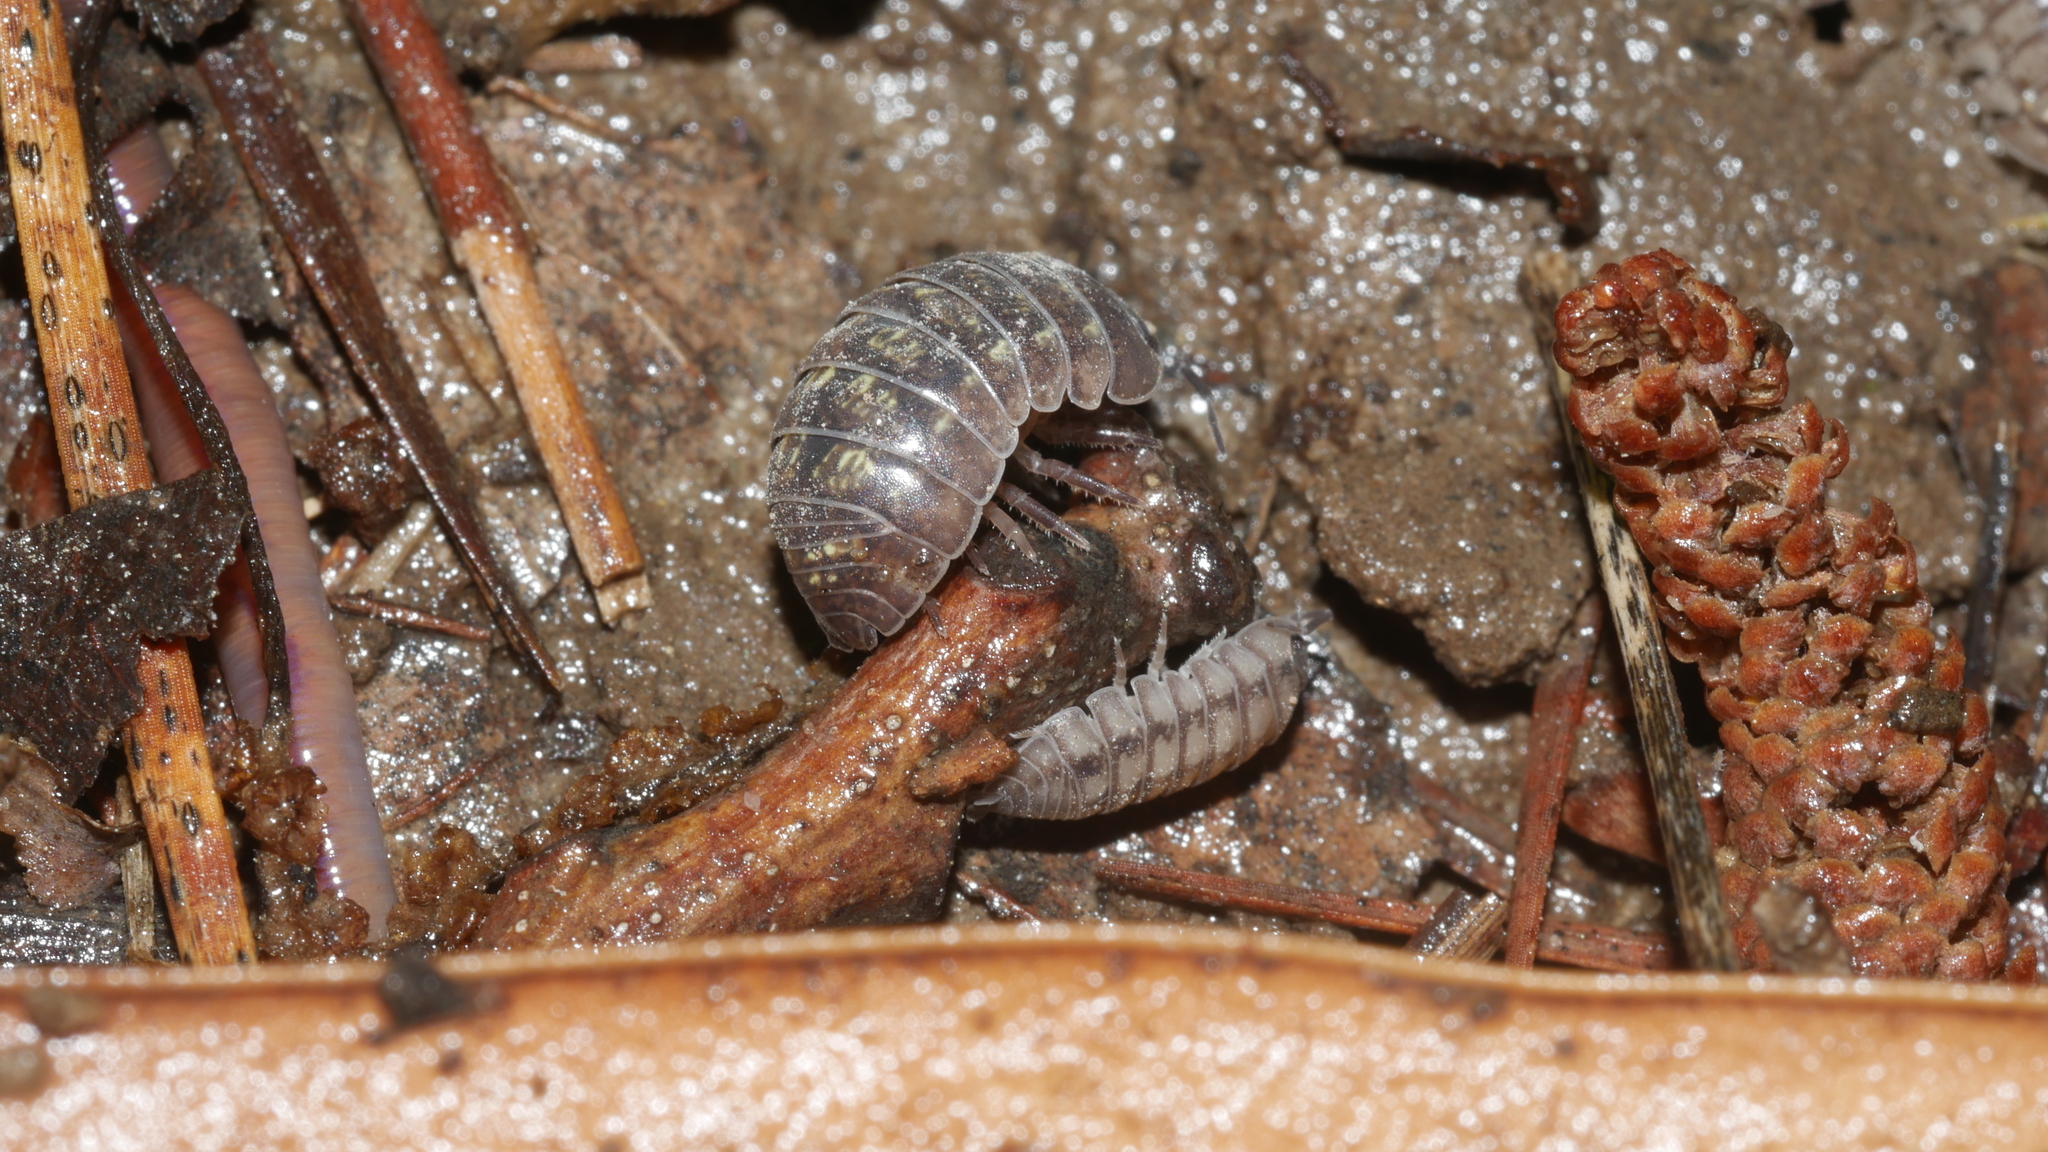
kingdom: Animalia
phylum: Arthropoda
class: Malacostraca
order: Isopoda
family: Armadillidiidae
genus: Armadillidium
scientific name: Armadillidium vulgare
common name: Common pill woodlouse
